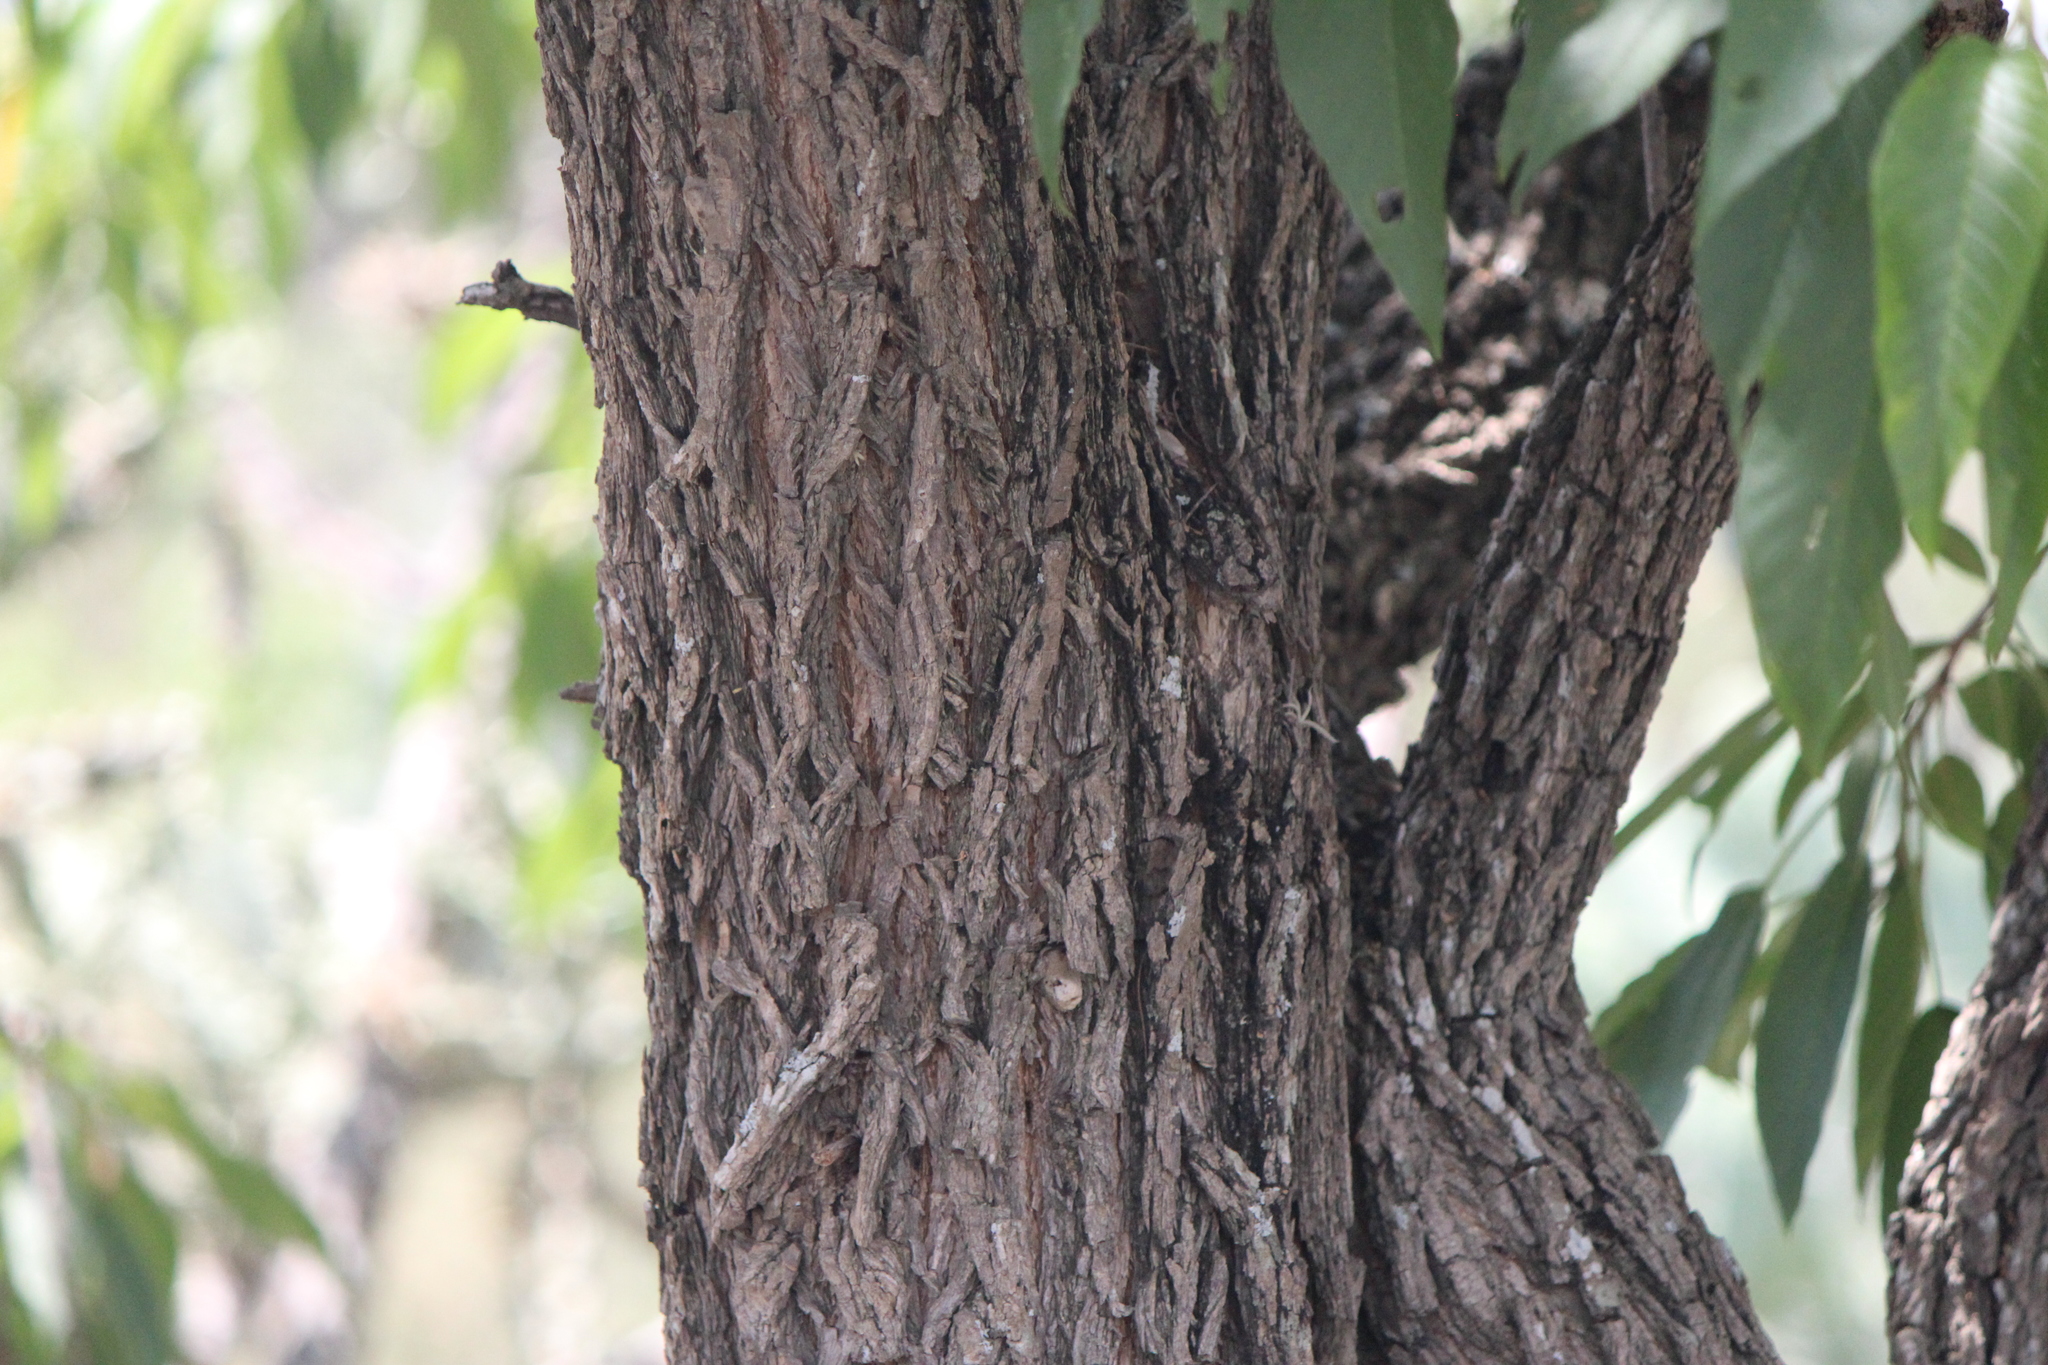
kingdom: Plantae
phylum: Tracheophyta
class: Magnoliopsida
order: Fabales
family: Fabaceae
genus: Eysenhardtia
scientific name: Eysenhardtia polystachya
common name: Kidneywood
